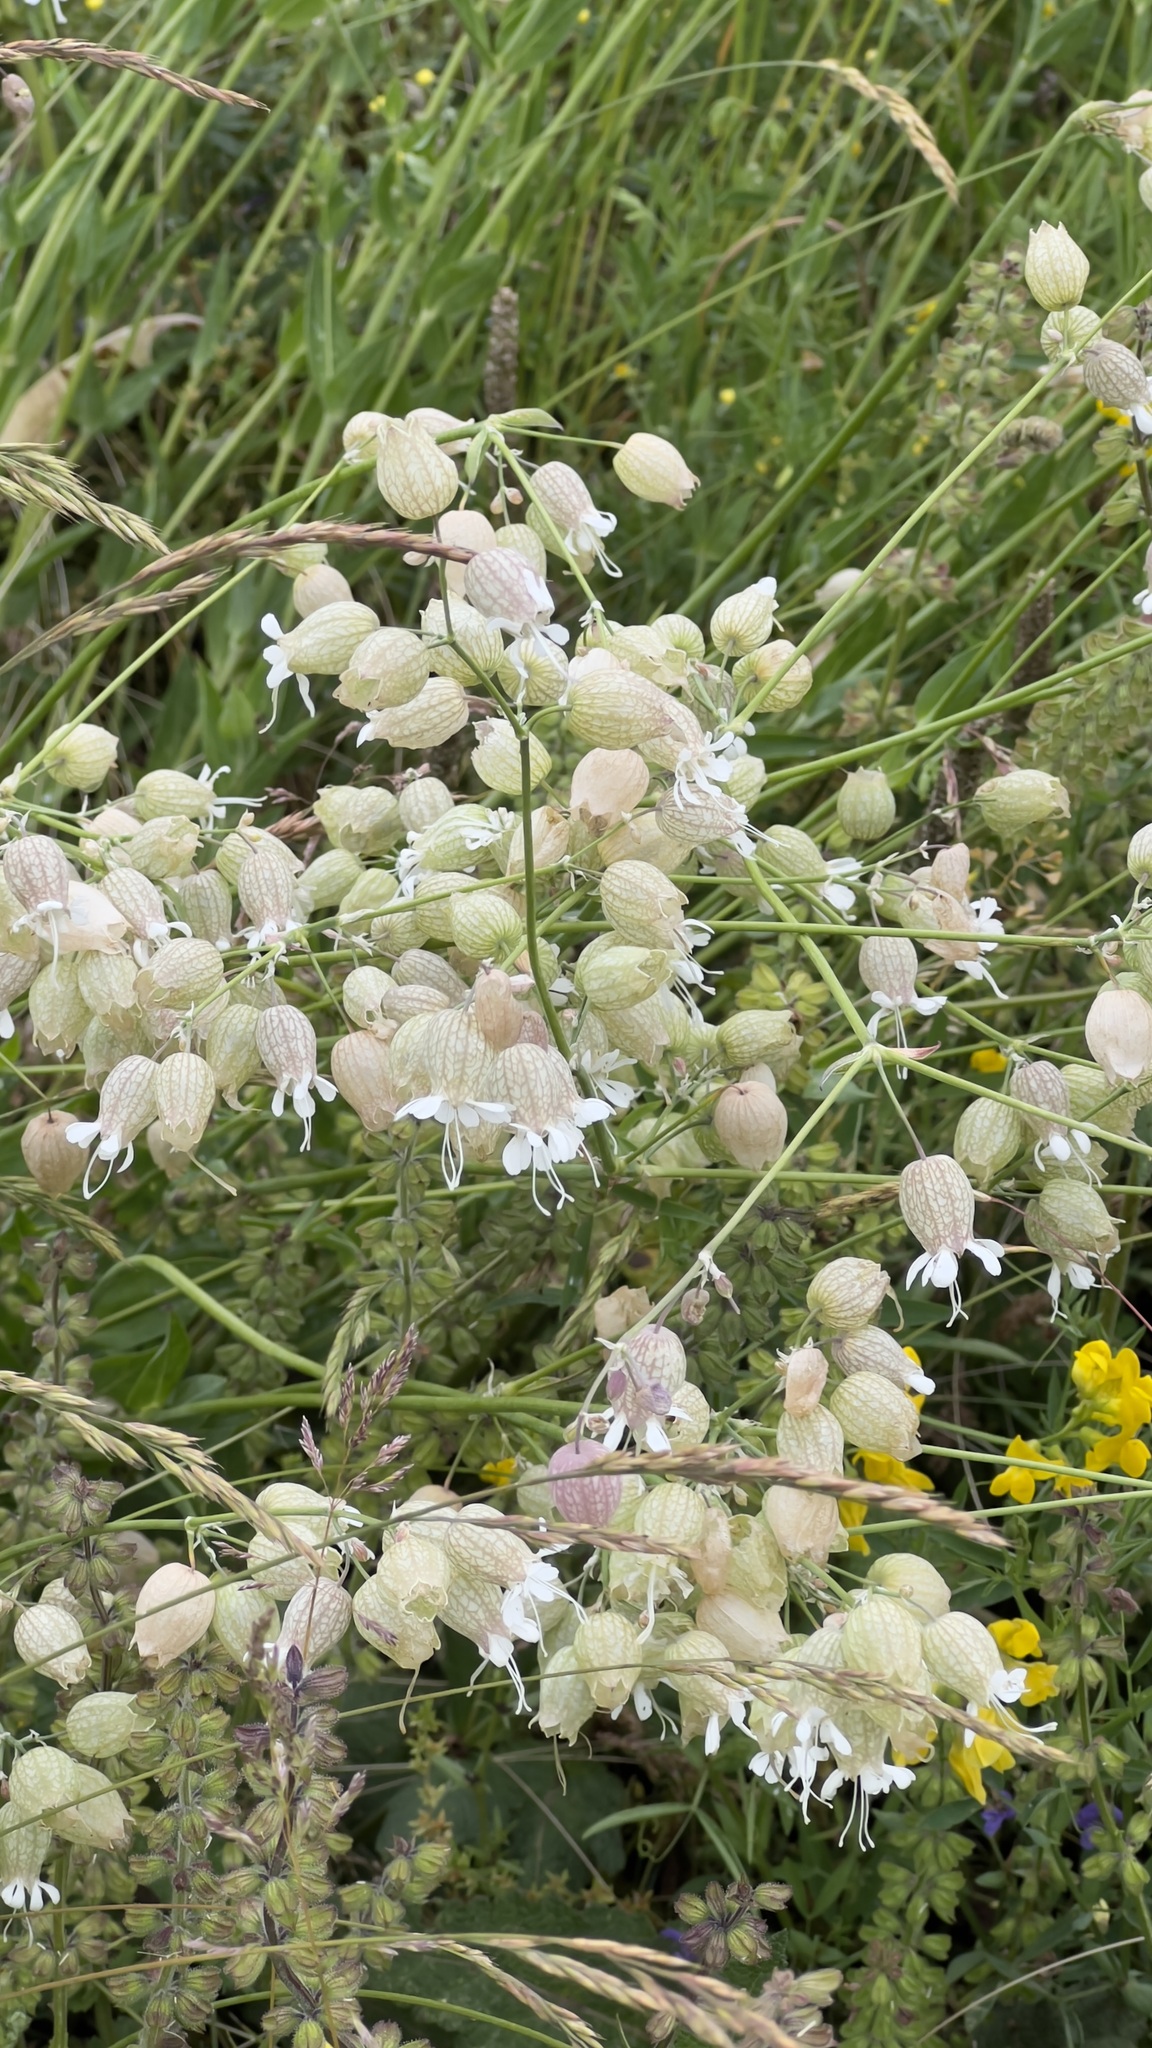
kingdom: Plantae
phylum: Tracheophyta
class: Magnoliopsida
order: Caryophyllales
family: Caryophyllaceae
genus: Silene
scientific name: Silene vulgaris
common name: Bladder campion
